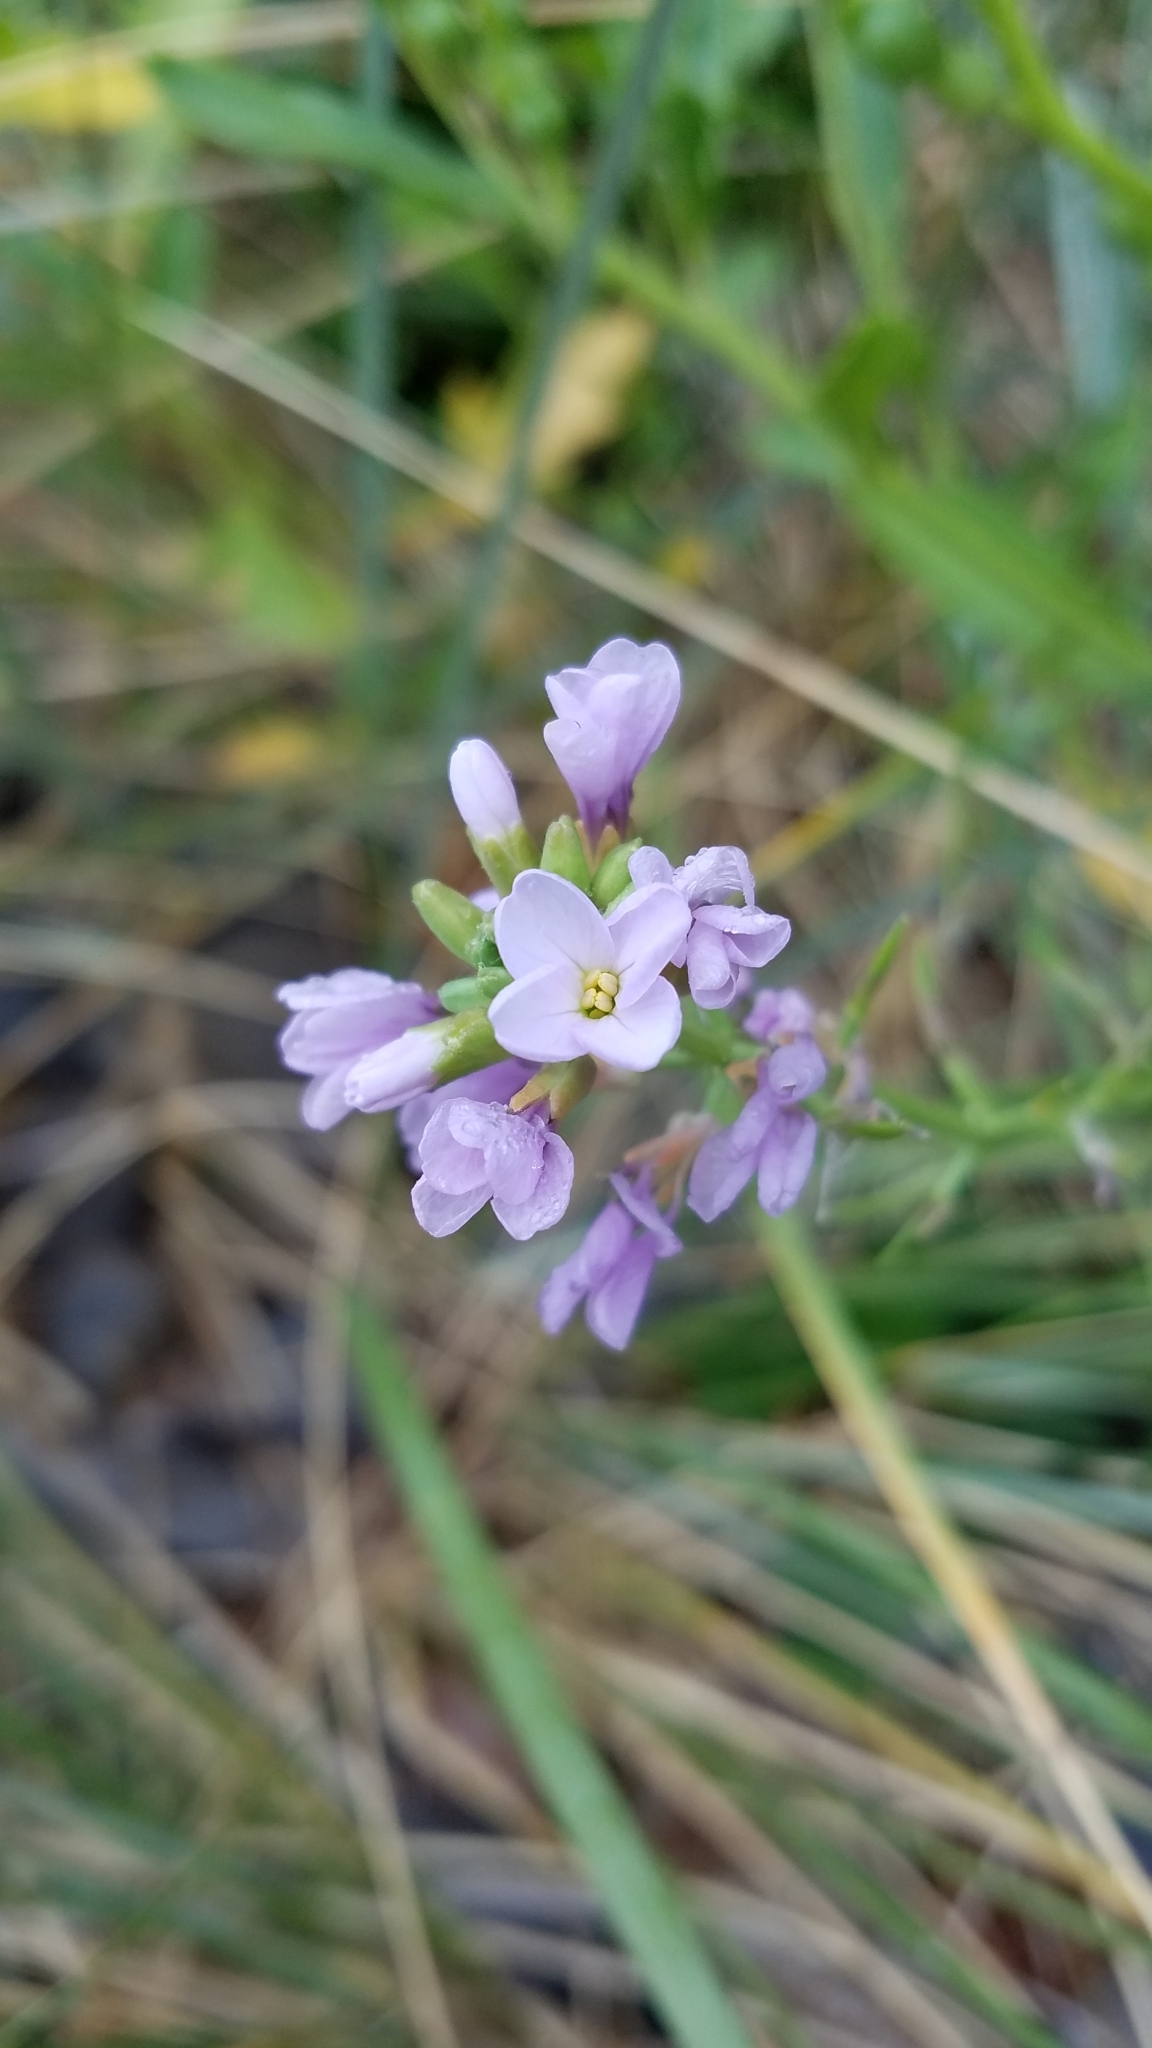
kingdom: Plantae
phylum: Tracheophyta
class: Magnoliopsida
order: Brassicales
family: Brassicaceae
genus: Cakile
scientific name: Cakile edentula
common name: American sea rocket
